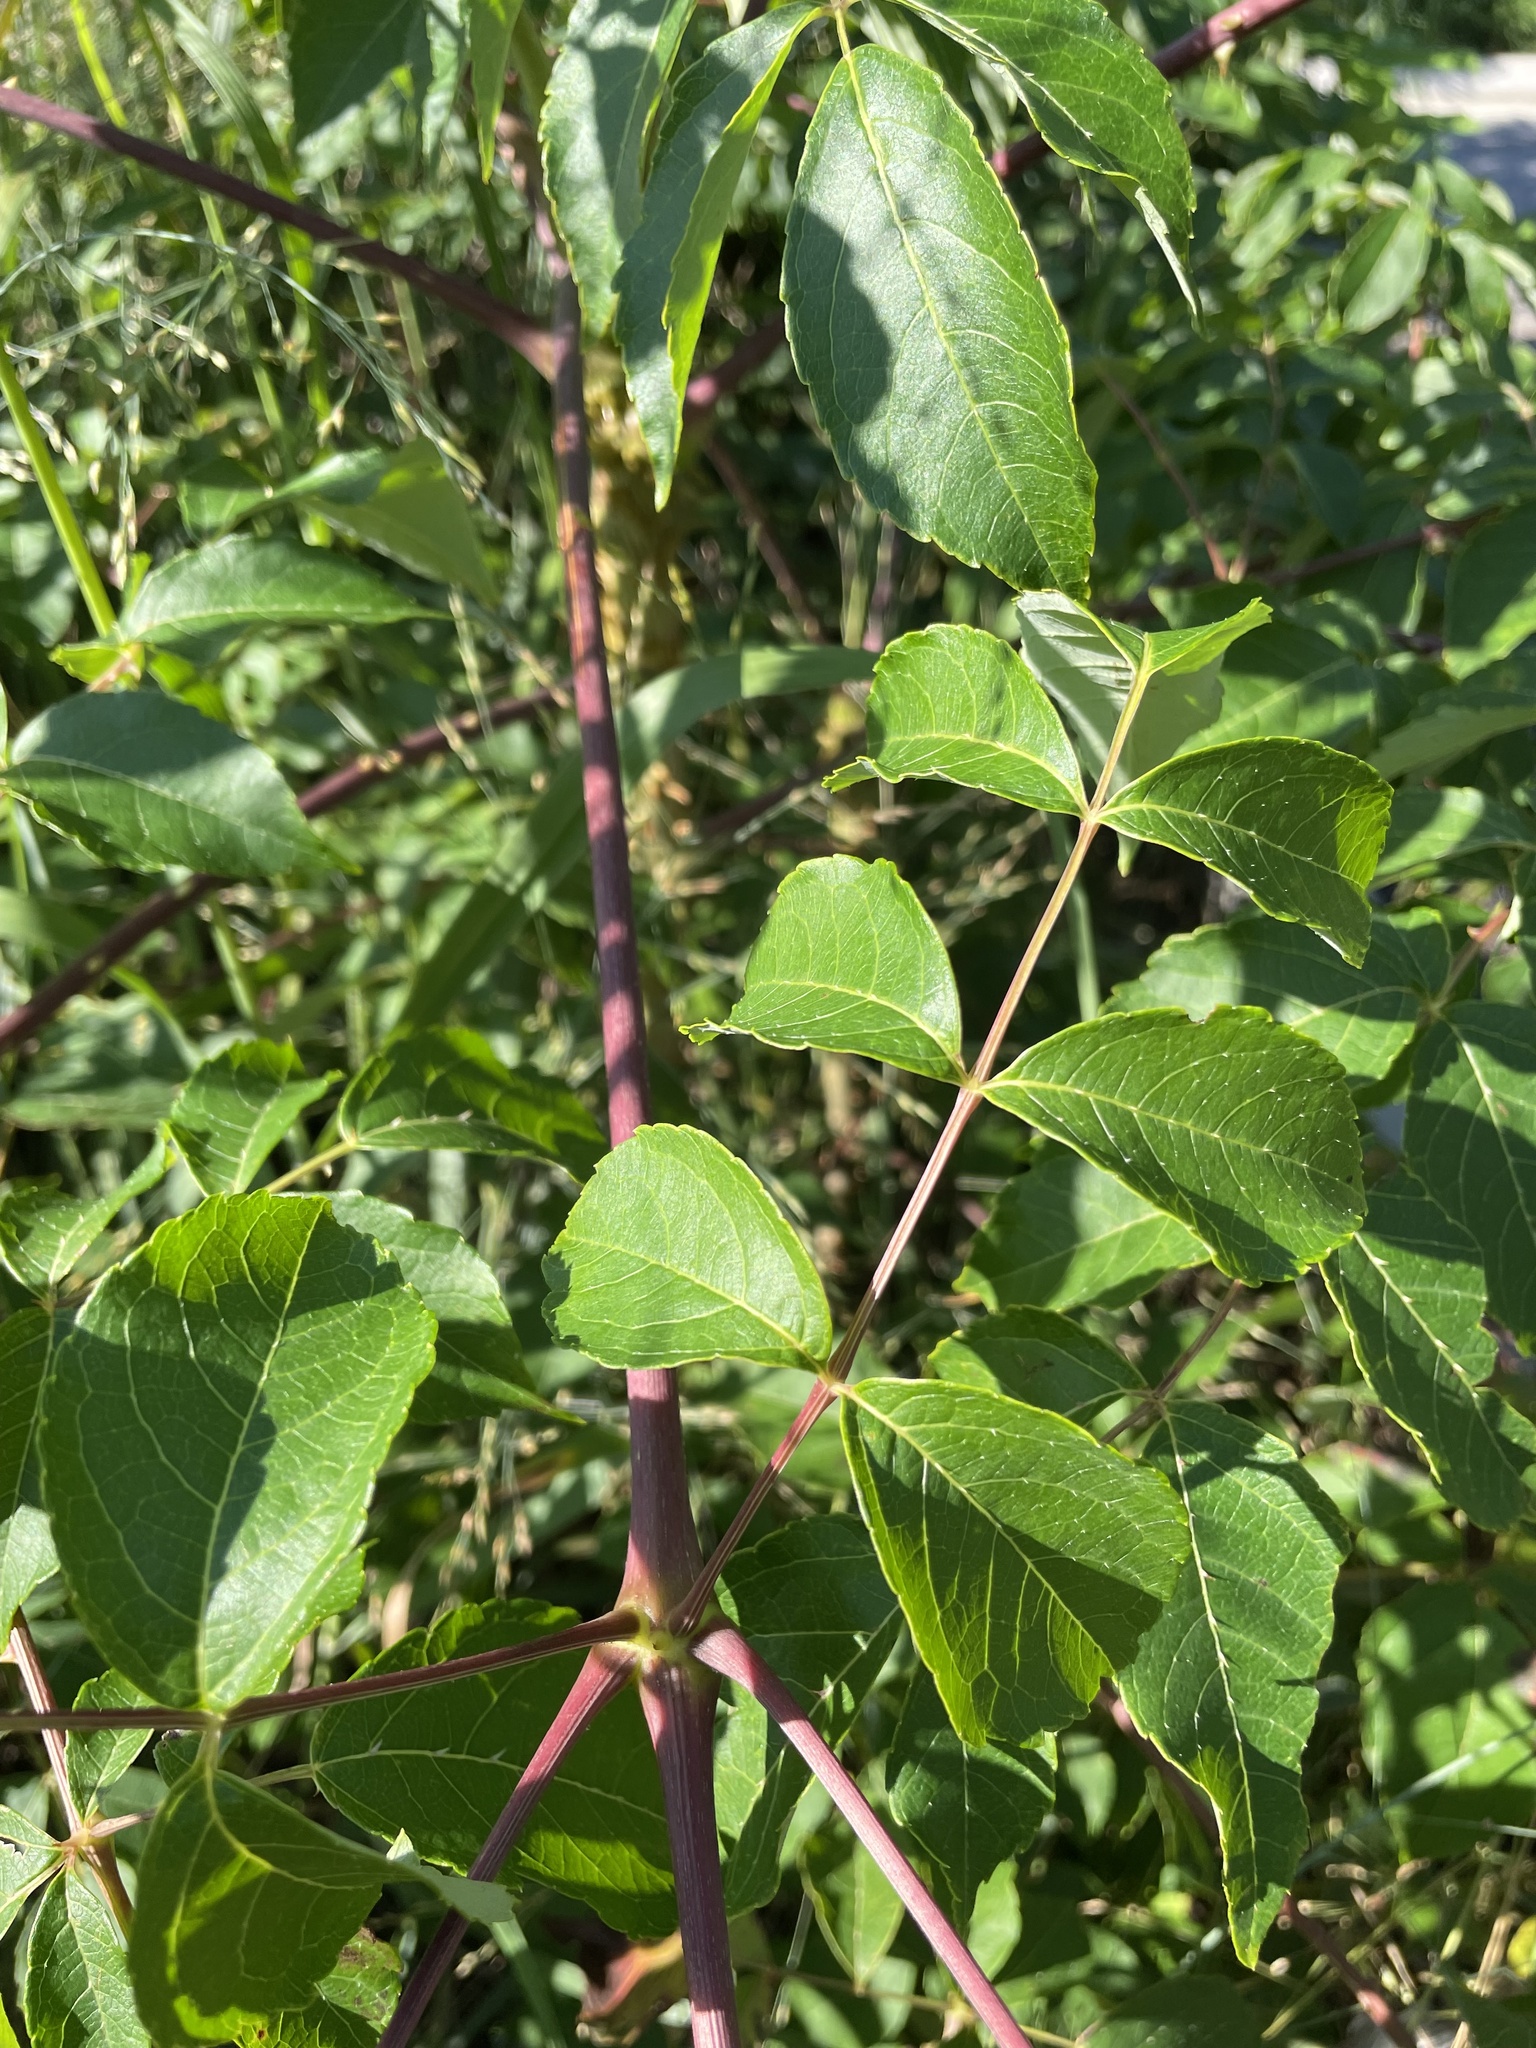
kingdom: Plantae
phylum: Tracheophyta
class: Magnoliopsida
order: Apiales
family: Araliaceae
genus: Aralia
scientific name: Aralia elata
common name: Japanese angelica-tree
